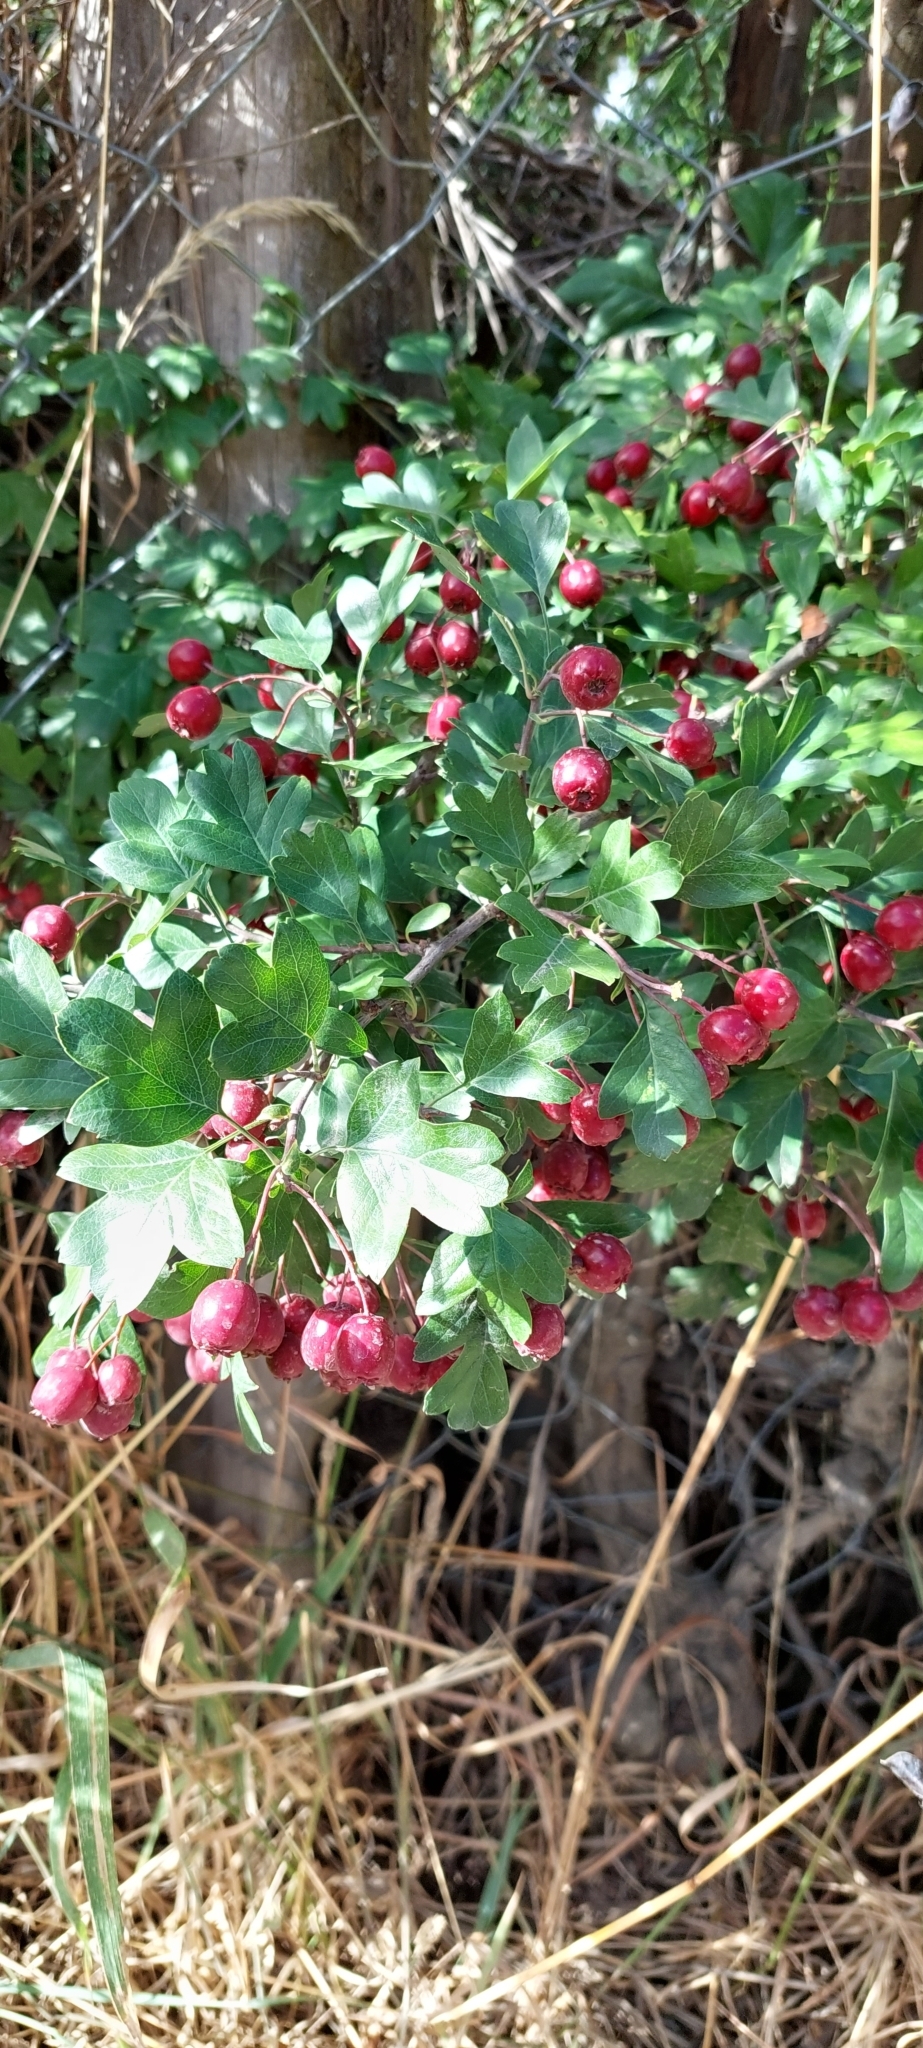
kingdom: Plantae
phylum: Tracheophyta
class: Magnoliopsida
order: Rosales
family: Rosaceae
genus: Crataegus
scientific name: Crataegus laevigata
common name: Midland hawthorn
